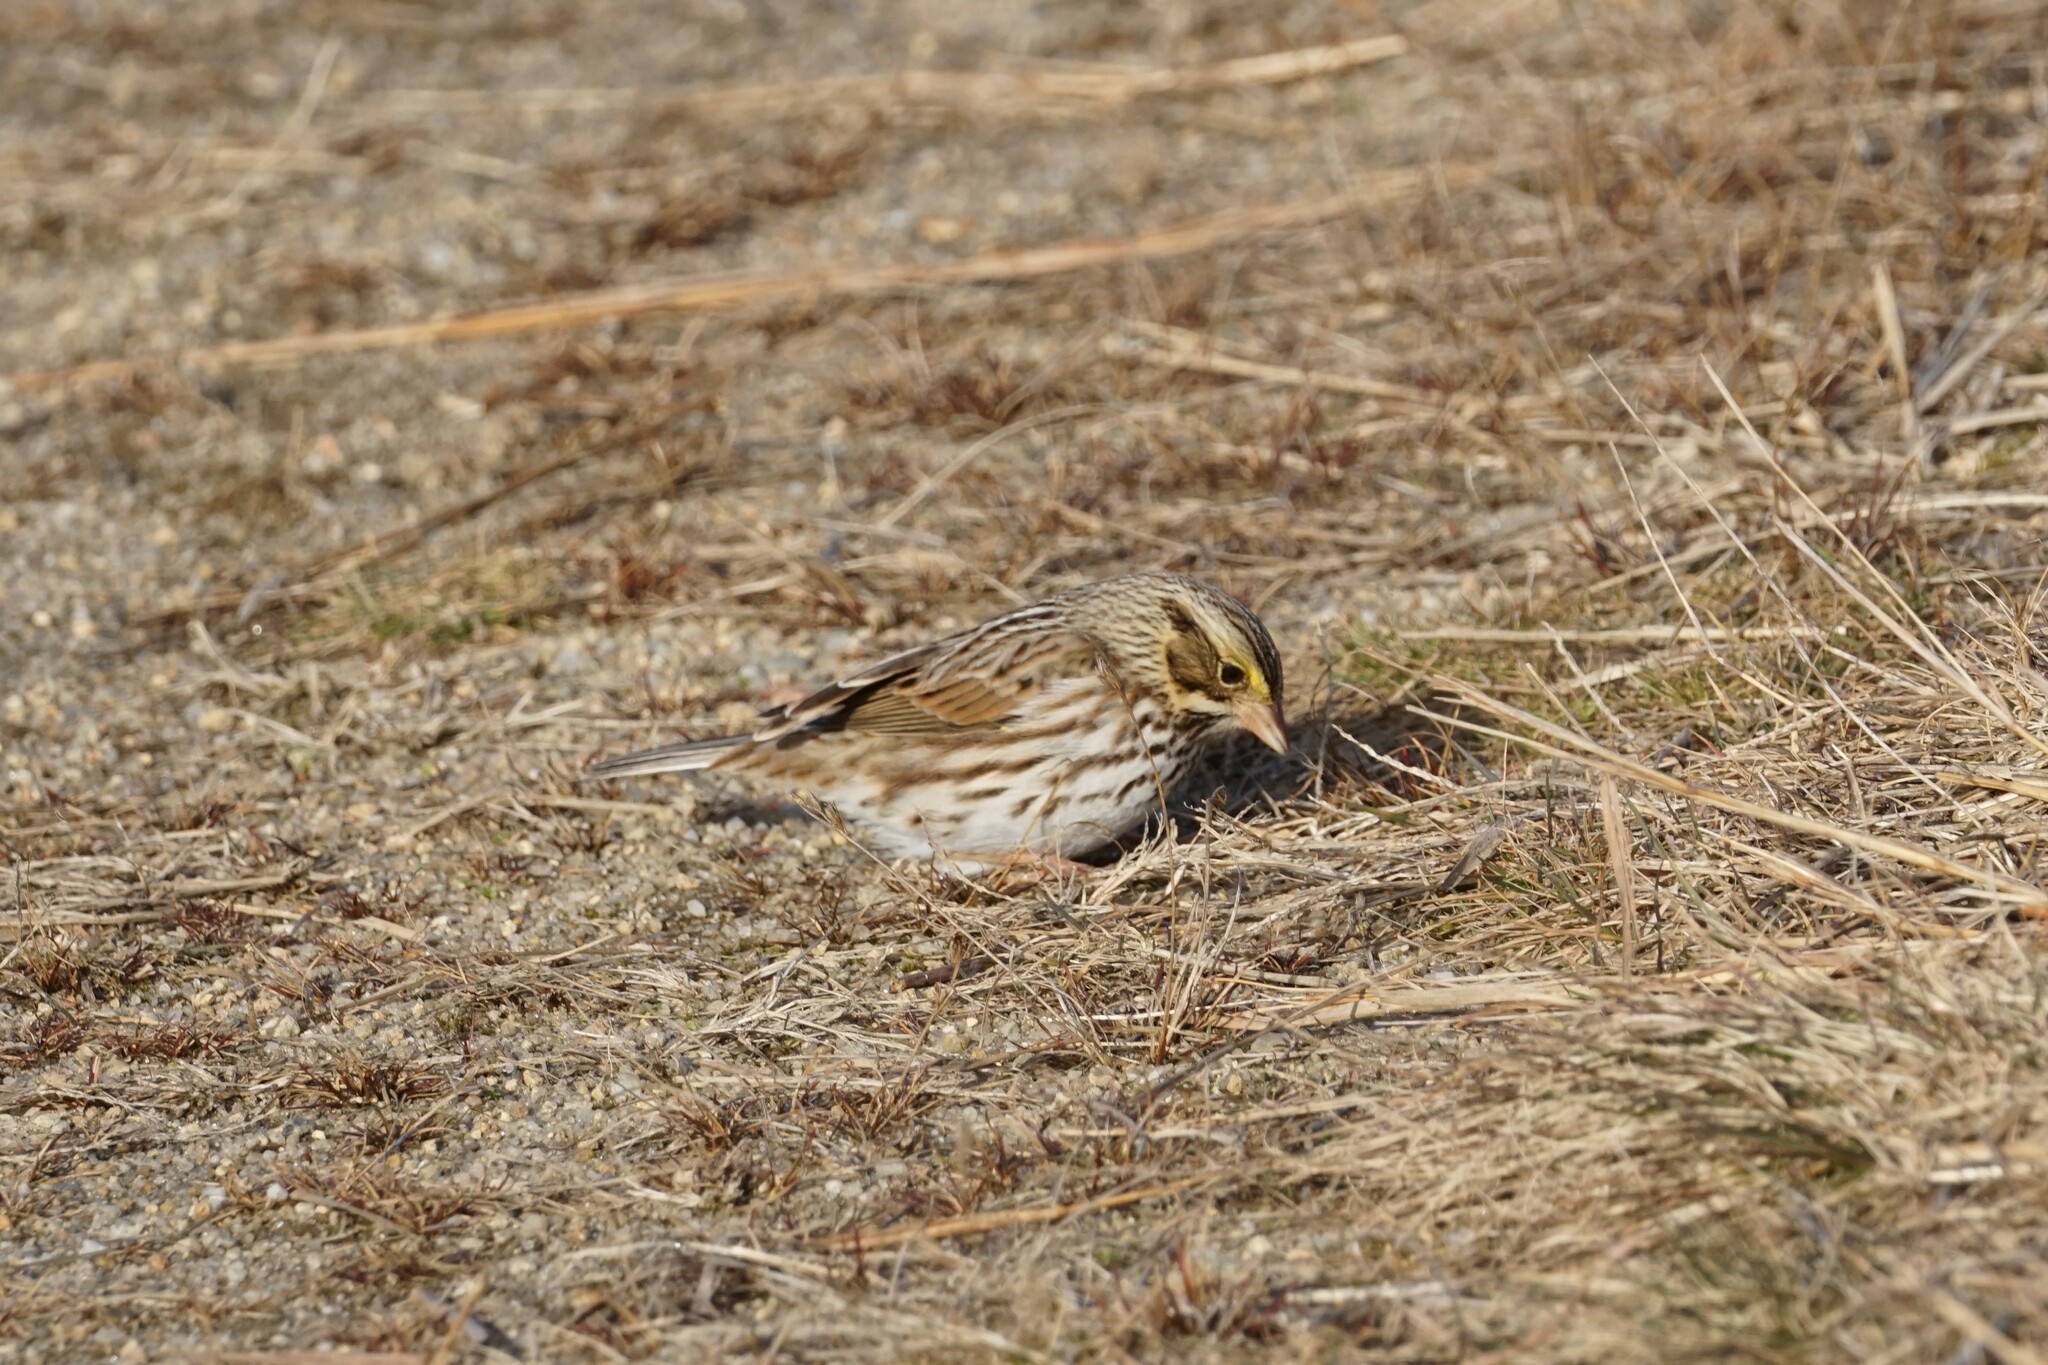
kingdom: Animalia
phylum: Chordata
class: Aves
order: Passeriformes
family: Passerellidae
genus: Passerculus
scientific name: Passerculus sandwichensis
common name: Savannah sparrow
